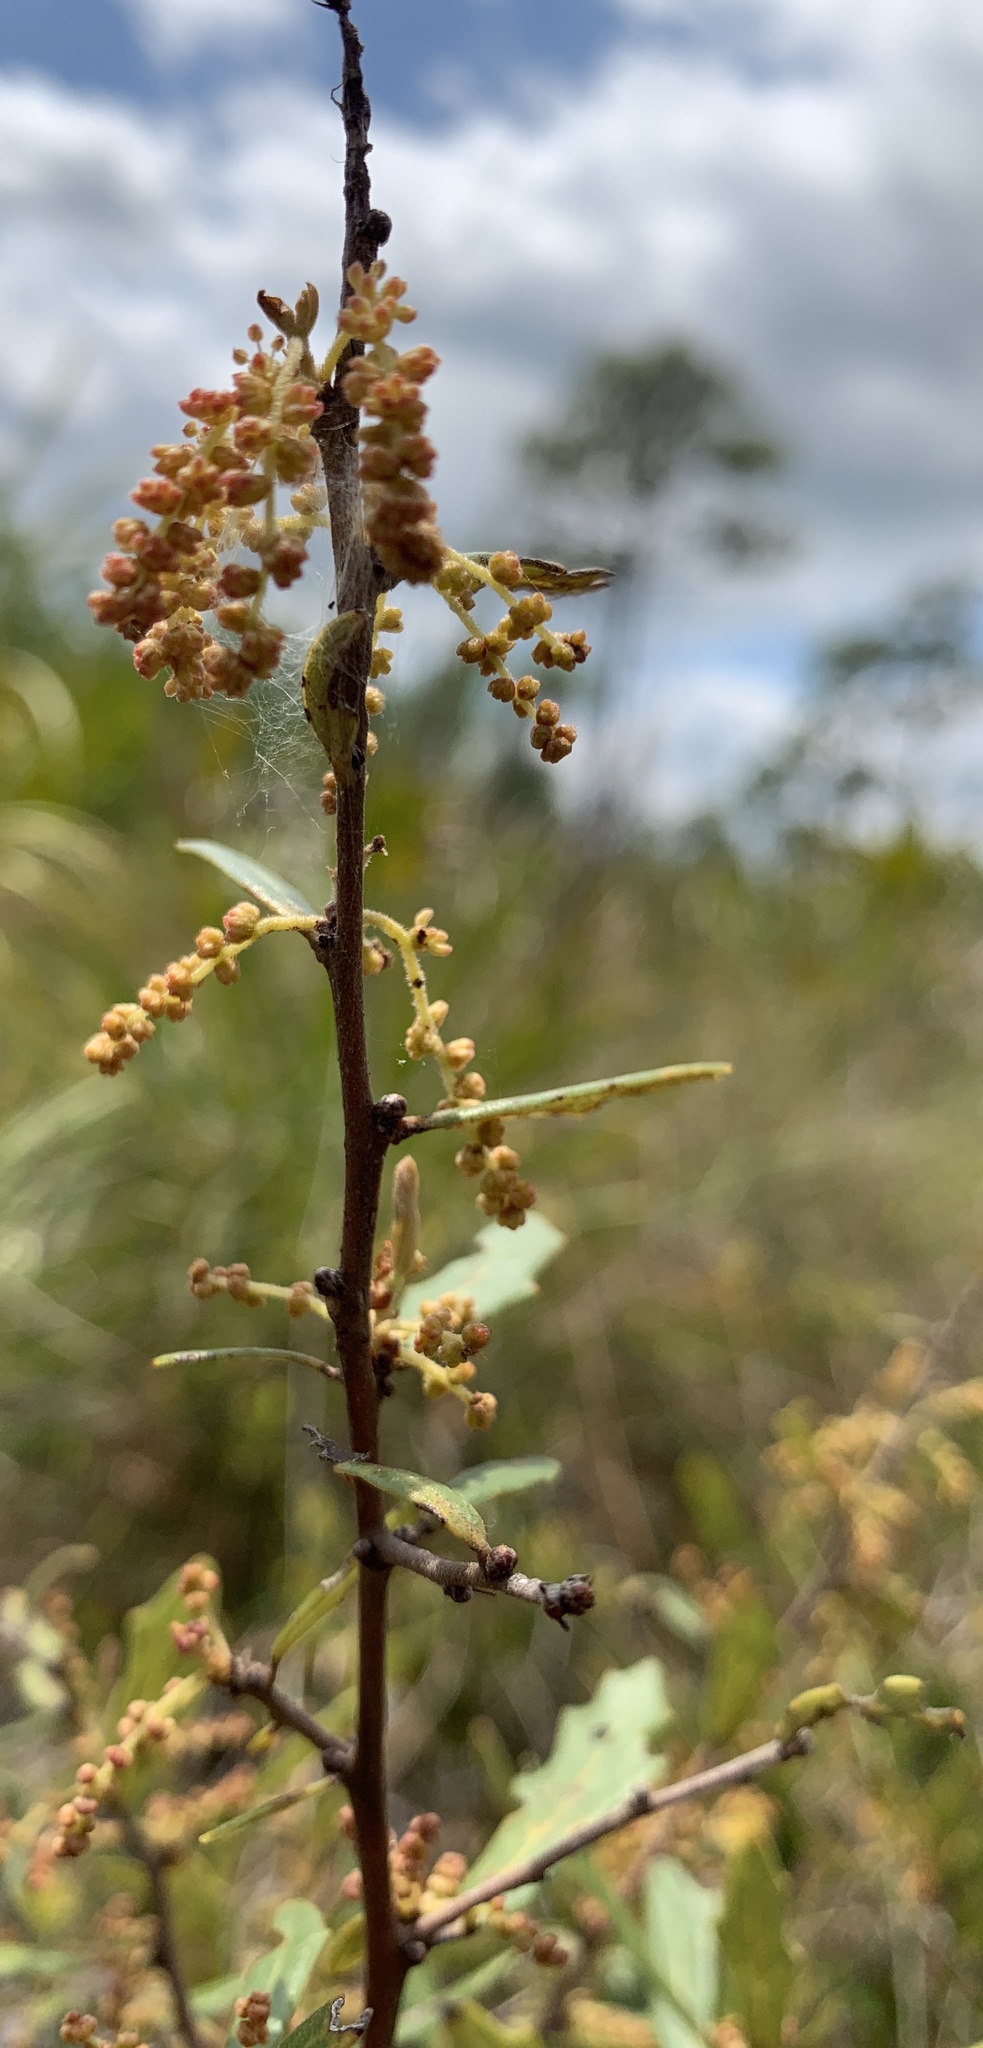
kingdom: Plantae
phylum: Tracheophyta
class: Magnoliopsida
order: Fagales
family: Fagaceae
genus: Quercus
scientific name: Quercus minima
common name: Dwarf live oak
